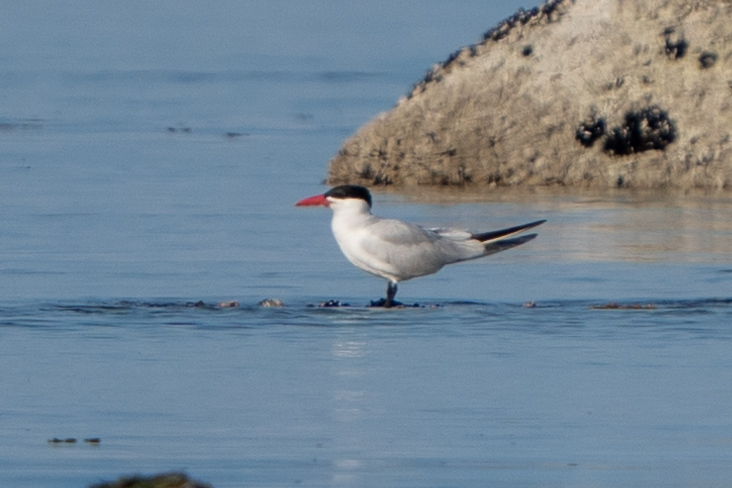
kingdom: Animalia
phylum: Chordata
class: Aves
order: Charadriiformes
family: Laridae
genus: Hydroprogne
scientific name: Hydroprogne caspia
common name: Caspian tern
